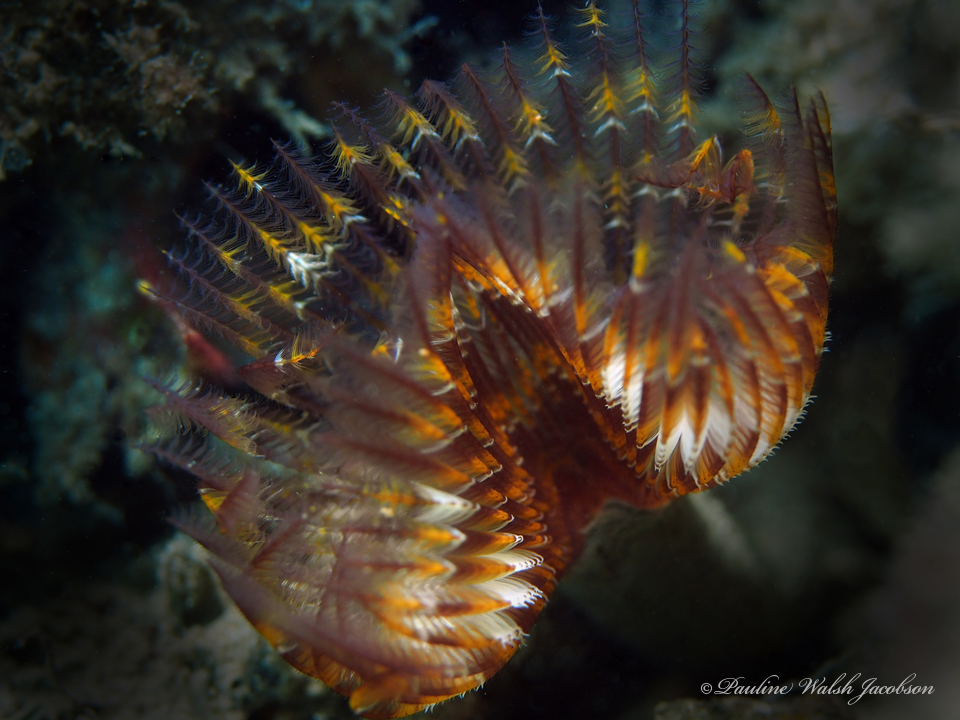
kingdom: Animalia
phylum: Annelida
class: Polychaeta
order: Sabellida
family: Sabellidae
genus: Branchiomma
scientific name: Branchiomma nigromaculatum
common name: Black-spotted feather duster
